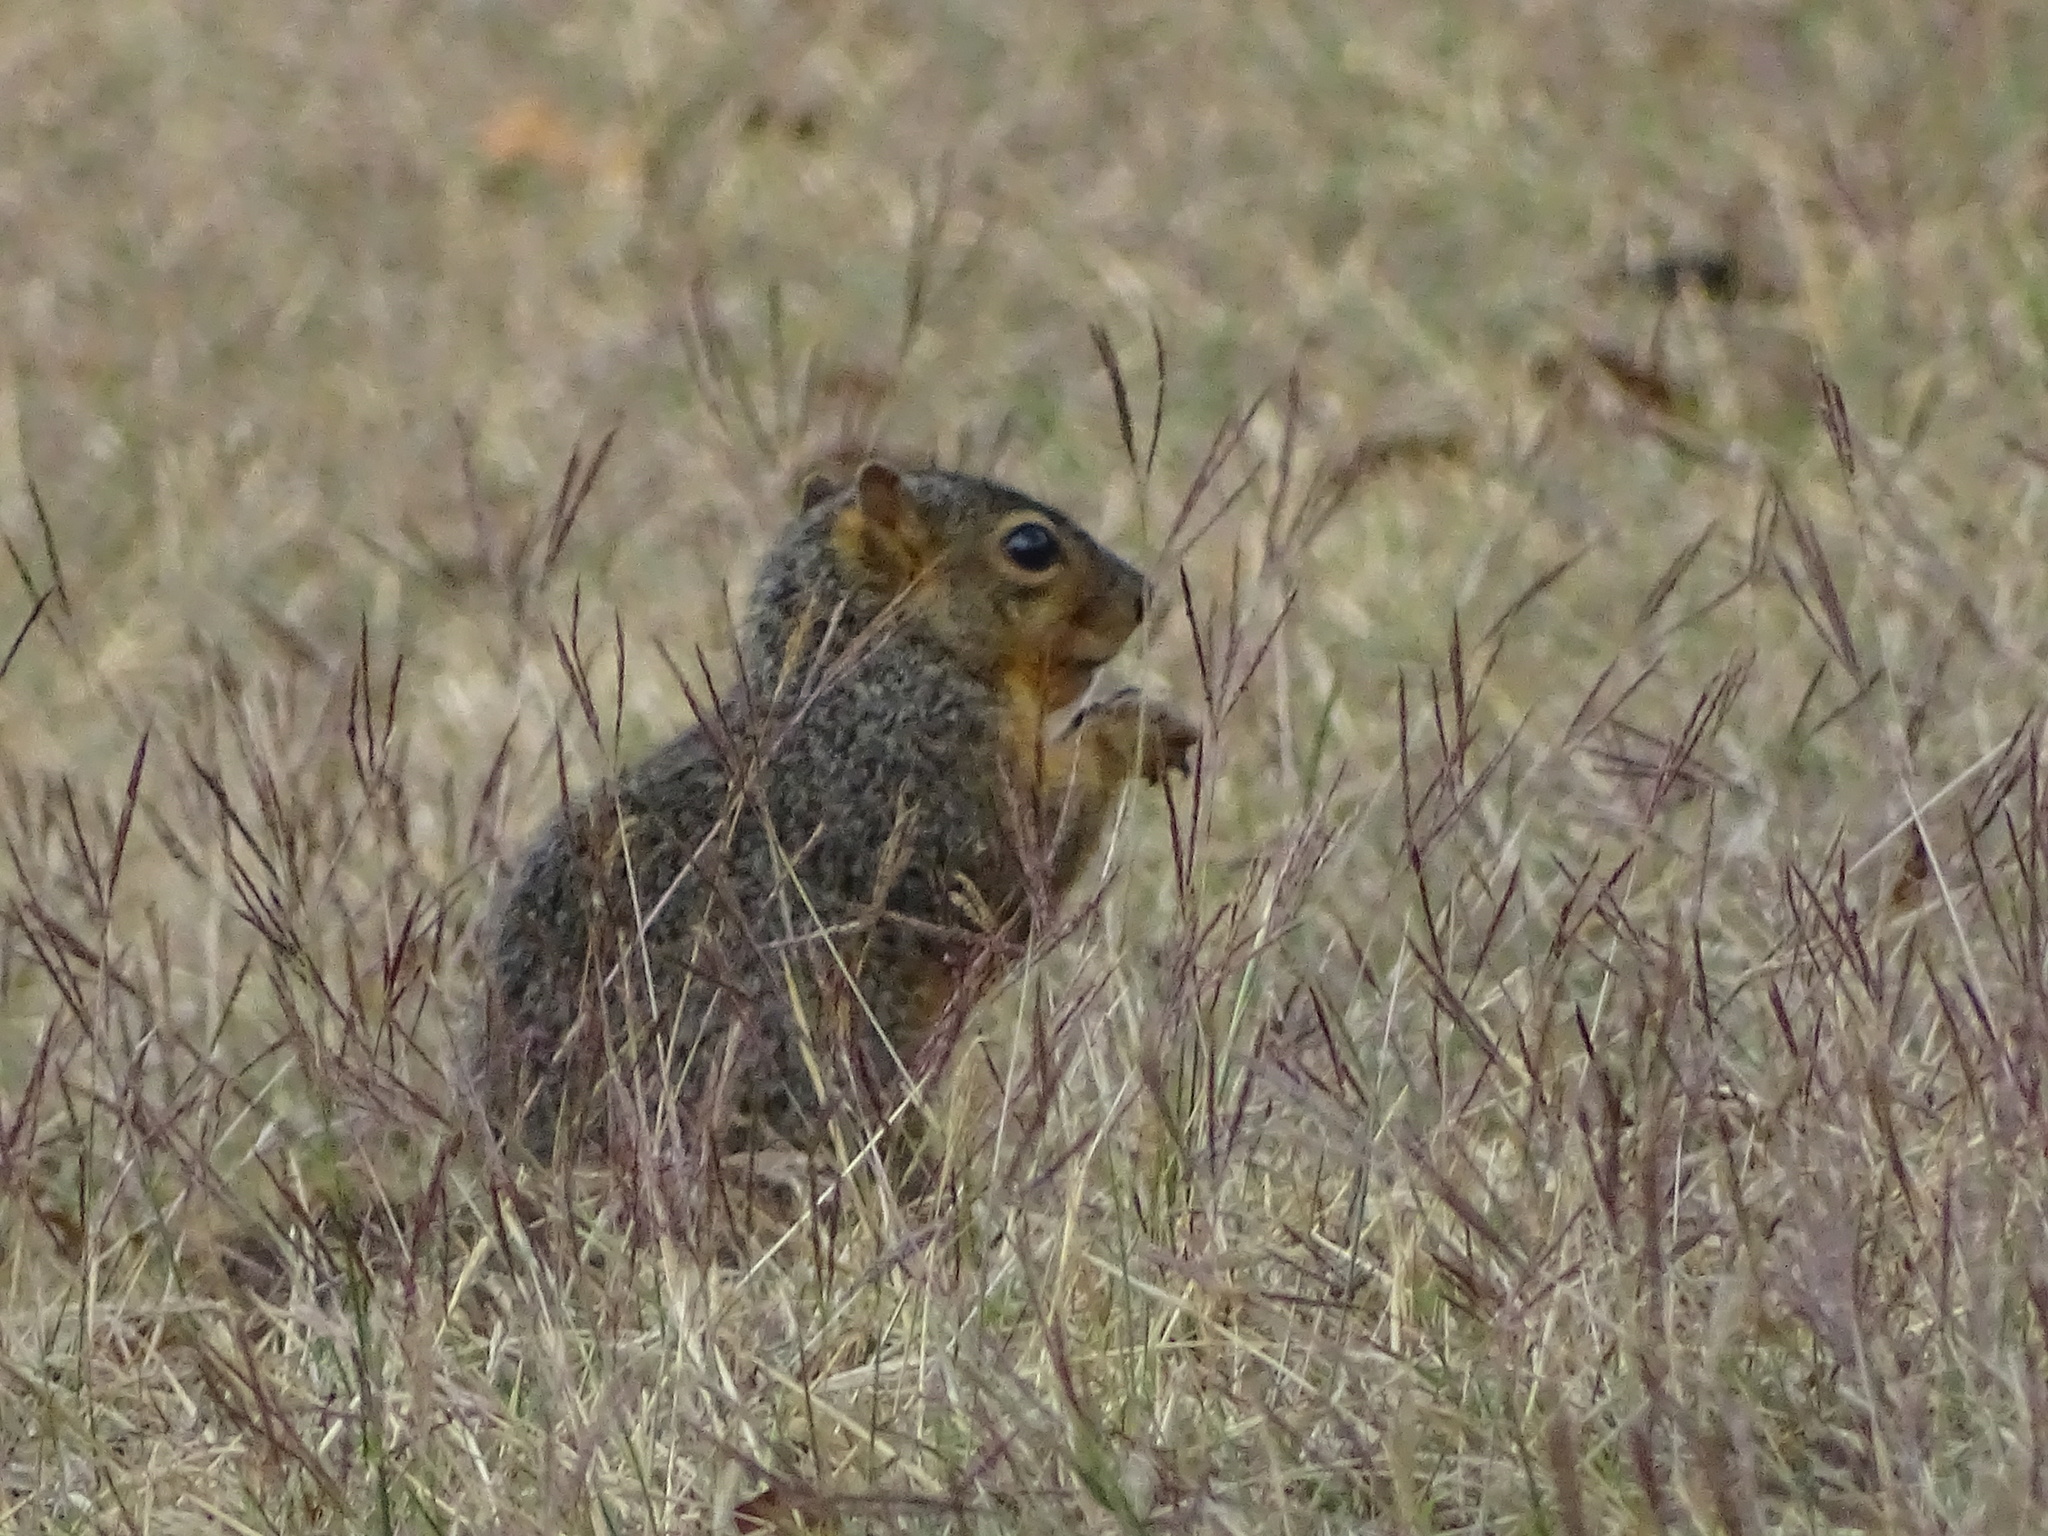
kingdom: Animalia
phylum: Chordata
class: Mammalia
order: Rodentia
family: Sciuridae
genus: Sciurus
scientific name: Sciurus niger
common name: Fox squirrel
